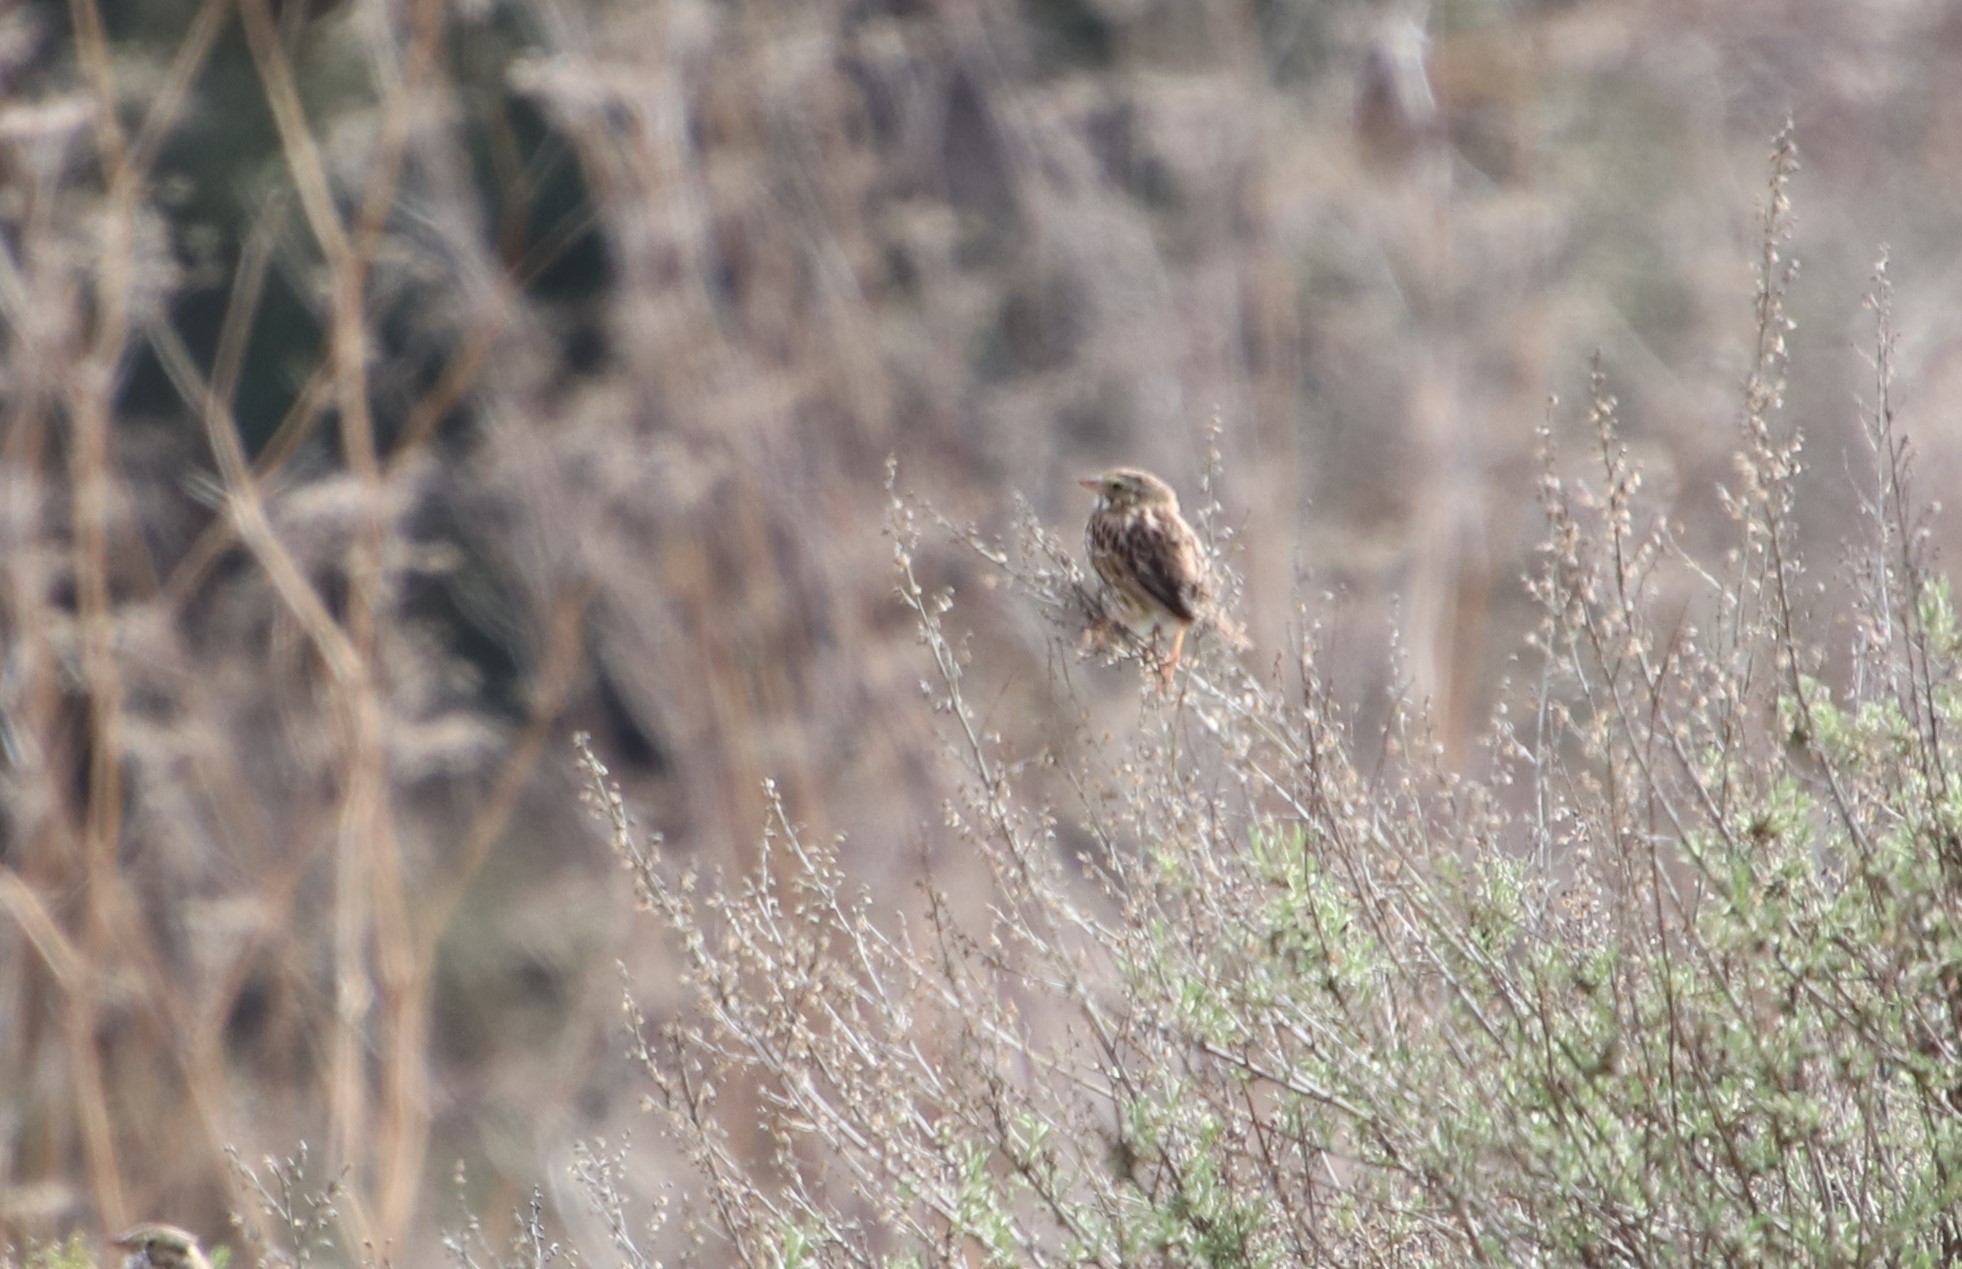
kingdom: Animalia
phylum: Chordata
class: Aves
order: Passeriformes
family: Passerellidae
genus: Passerculus
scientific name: Passerculus sandwichensis
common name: Savannah sparrow
